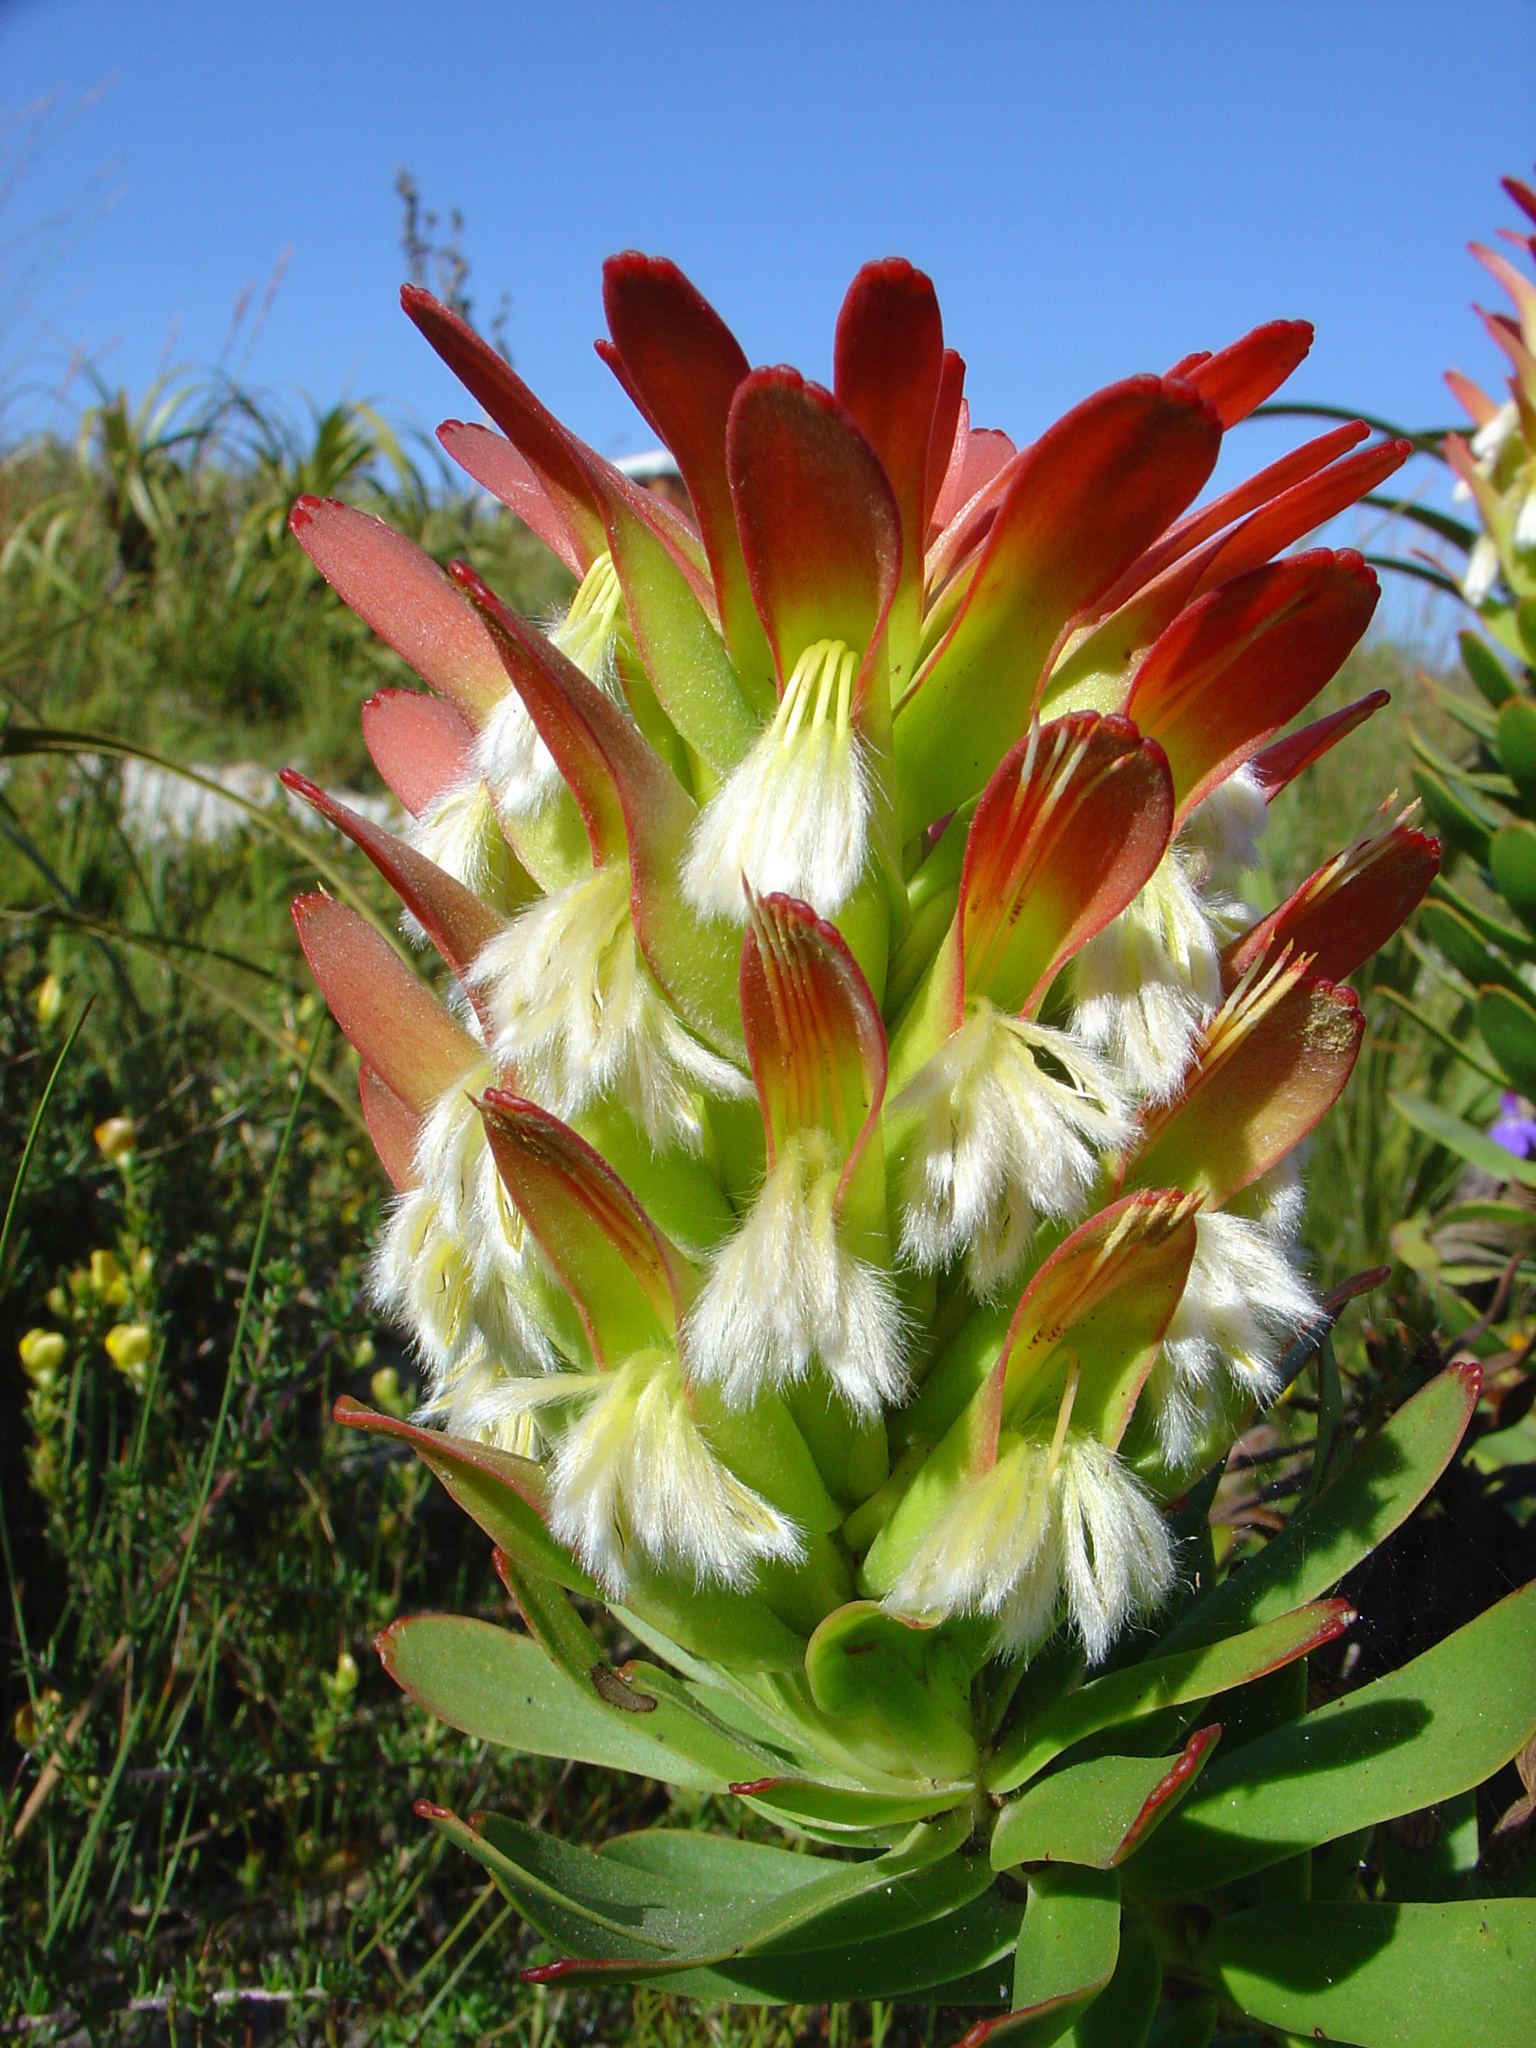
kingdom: Plantae
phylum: Tracheophyta
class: Magnoliopsida
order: Proteales
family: Proteaceae
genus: Mimetes
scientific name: Mimetes cucullatus
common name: Common pagoda
